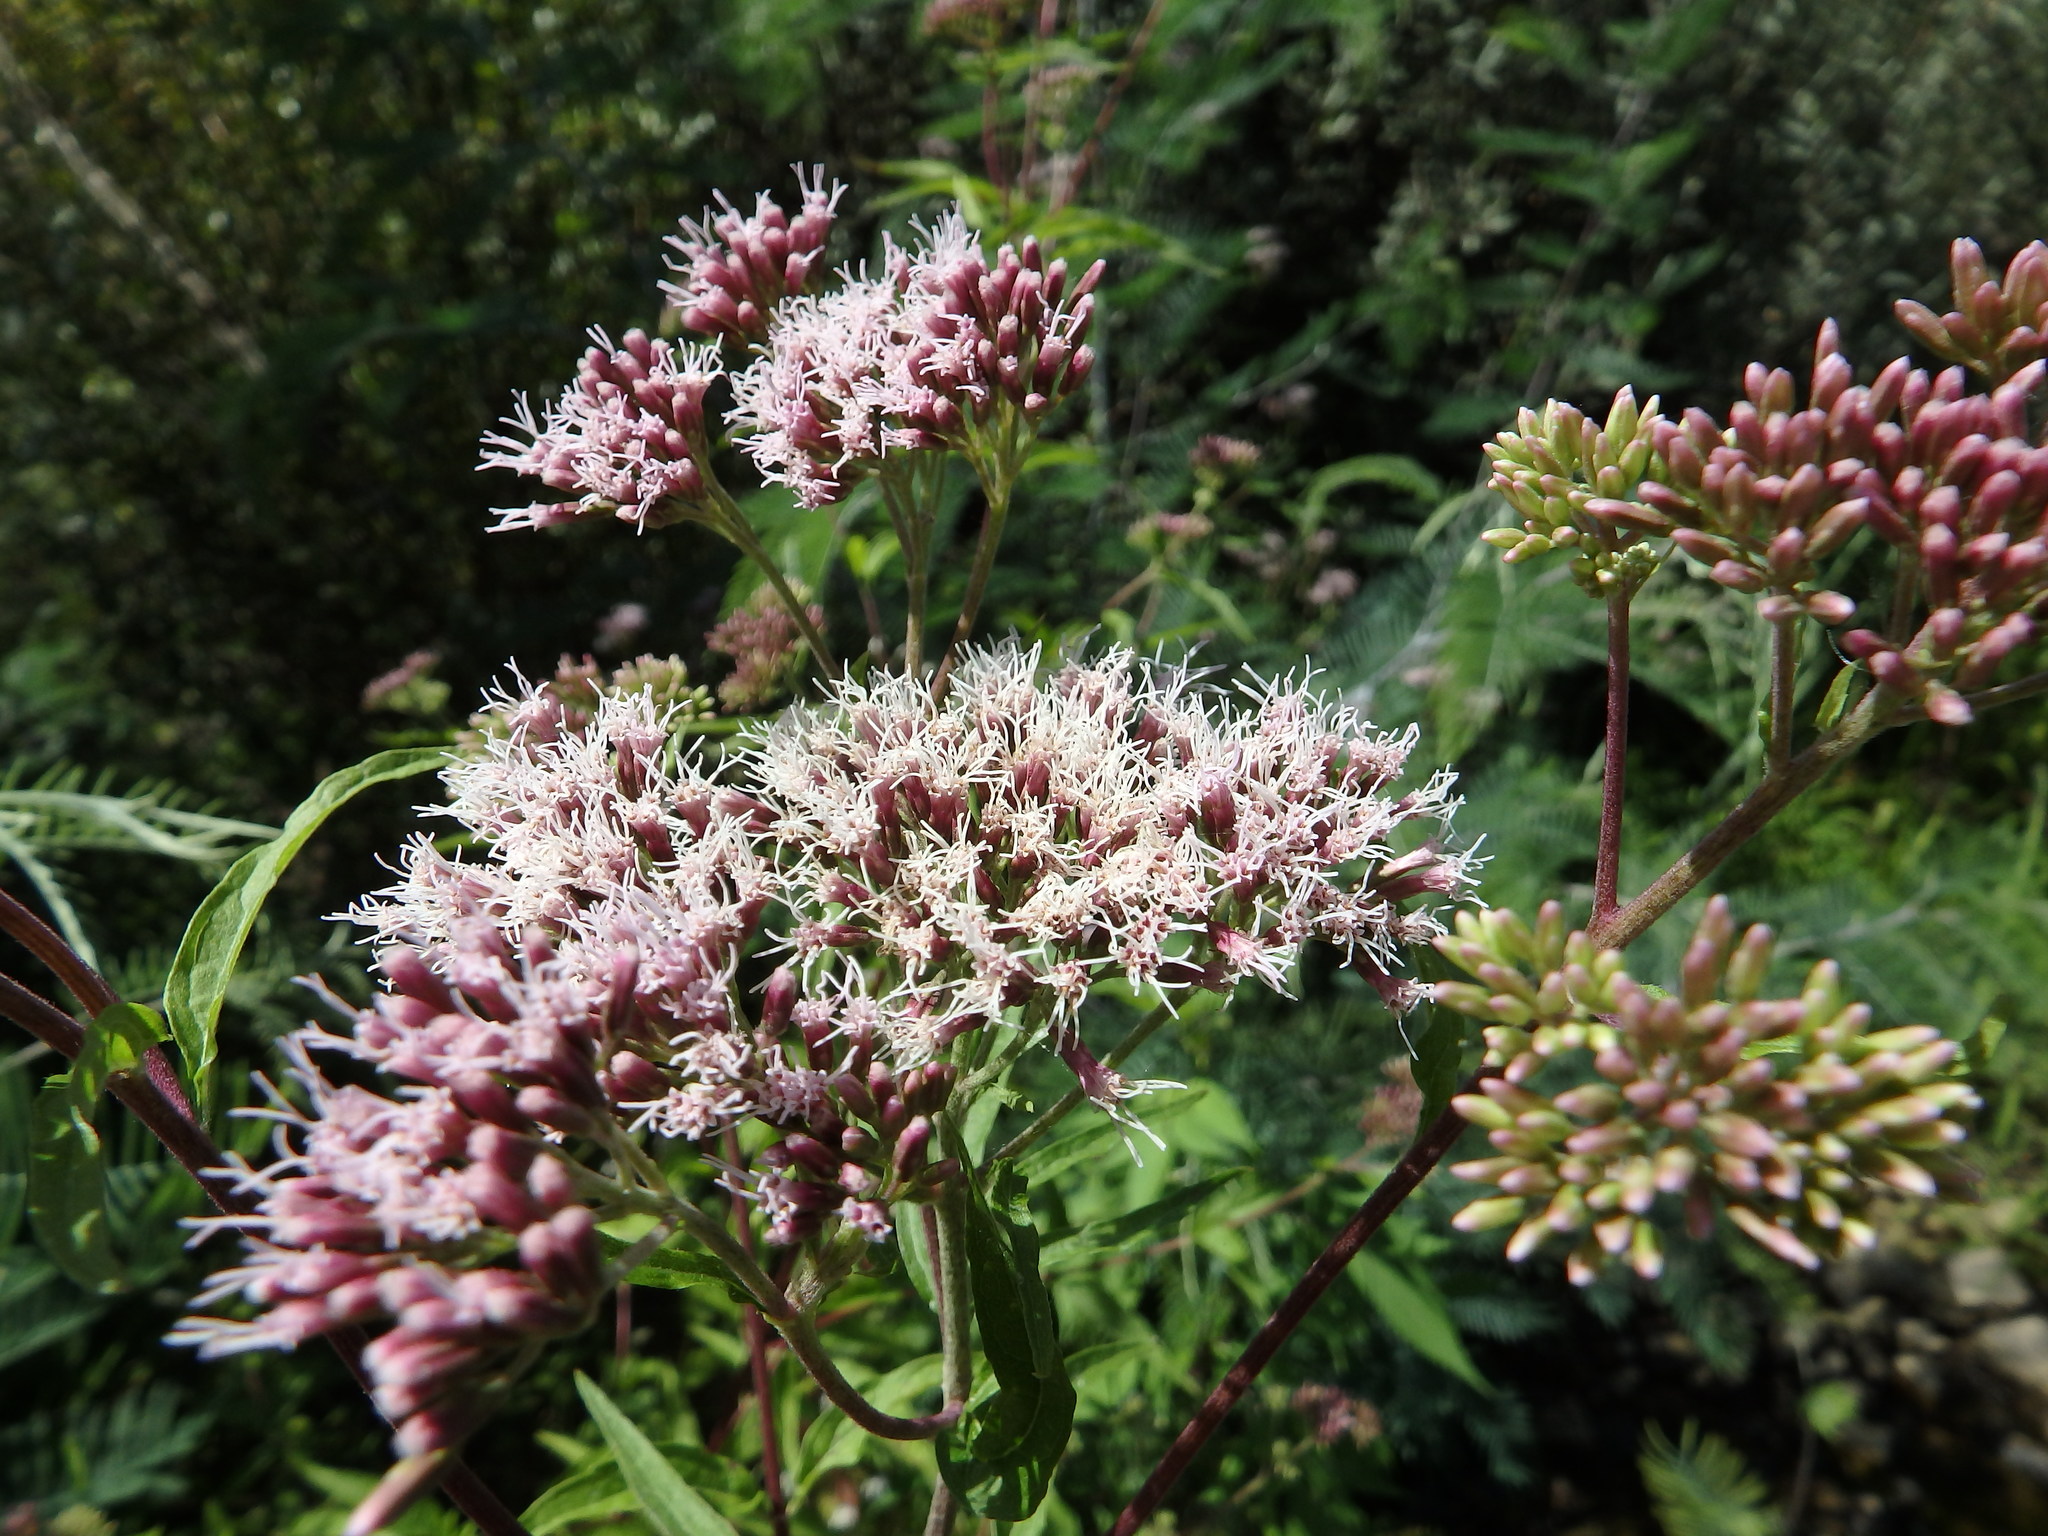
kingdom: Plantae
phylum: Tracheophyta
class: Magnoliopsida
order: Asterales
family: Asteraceae
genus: Eupatorium
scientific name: Eupatorium cannabinum
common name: Hemp-agrimony
